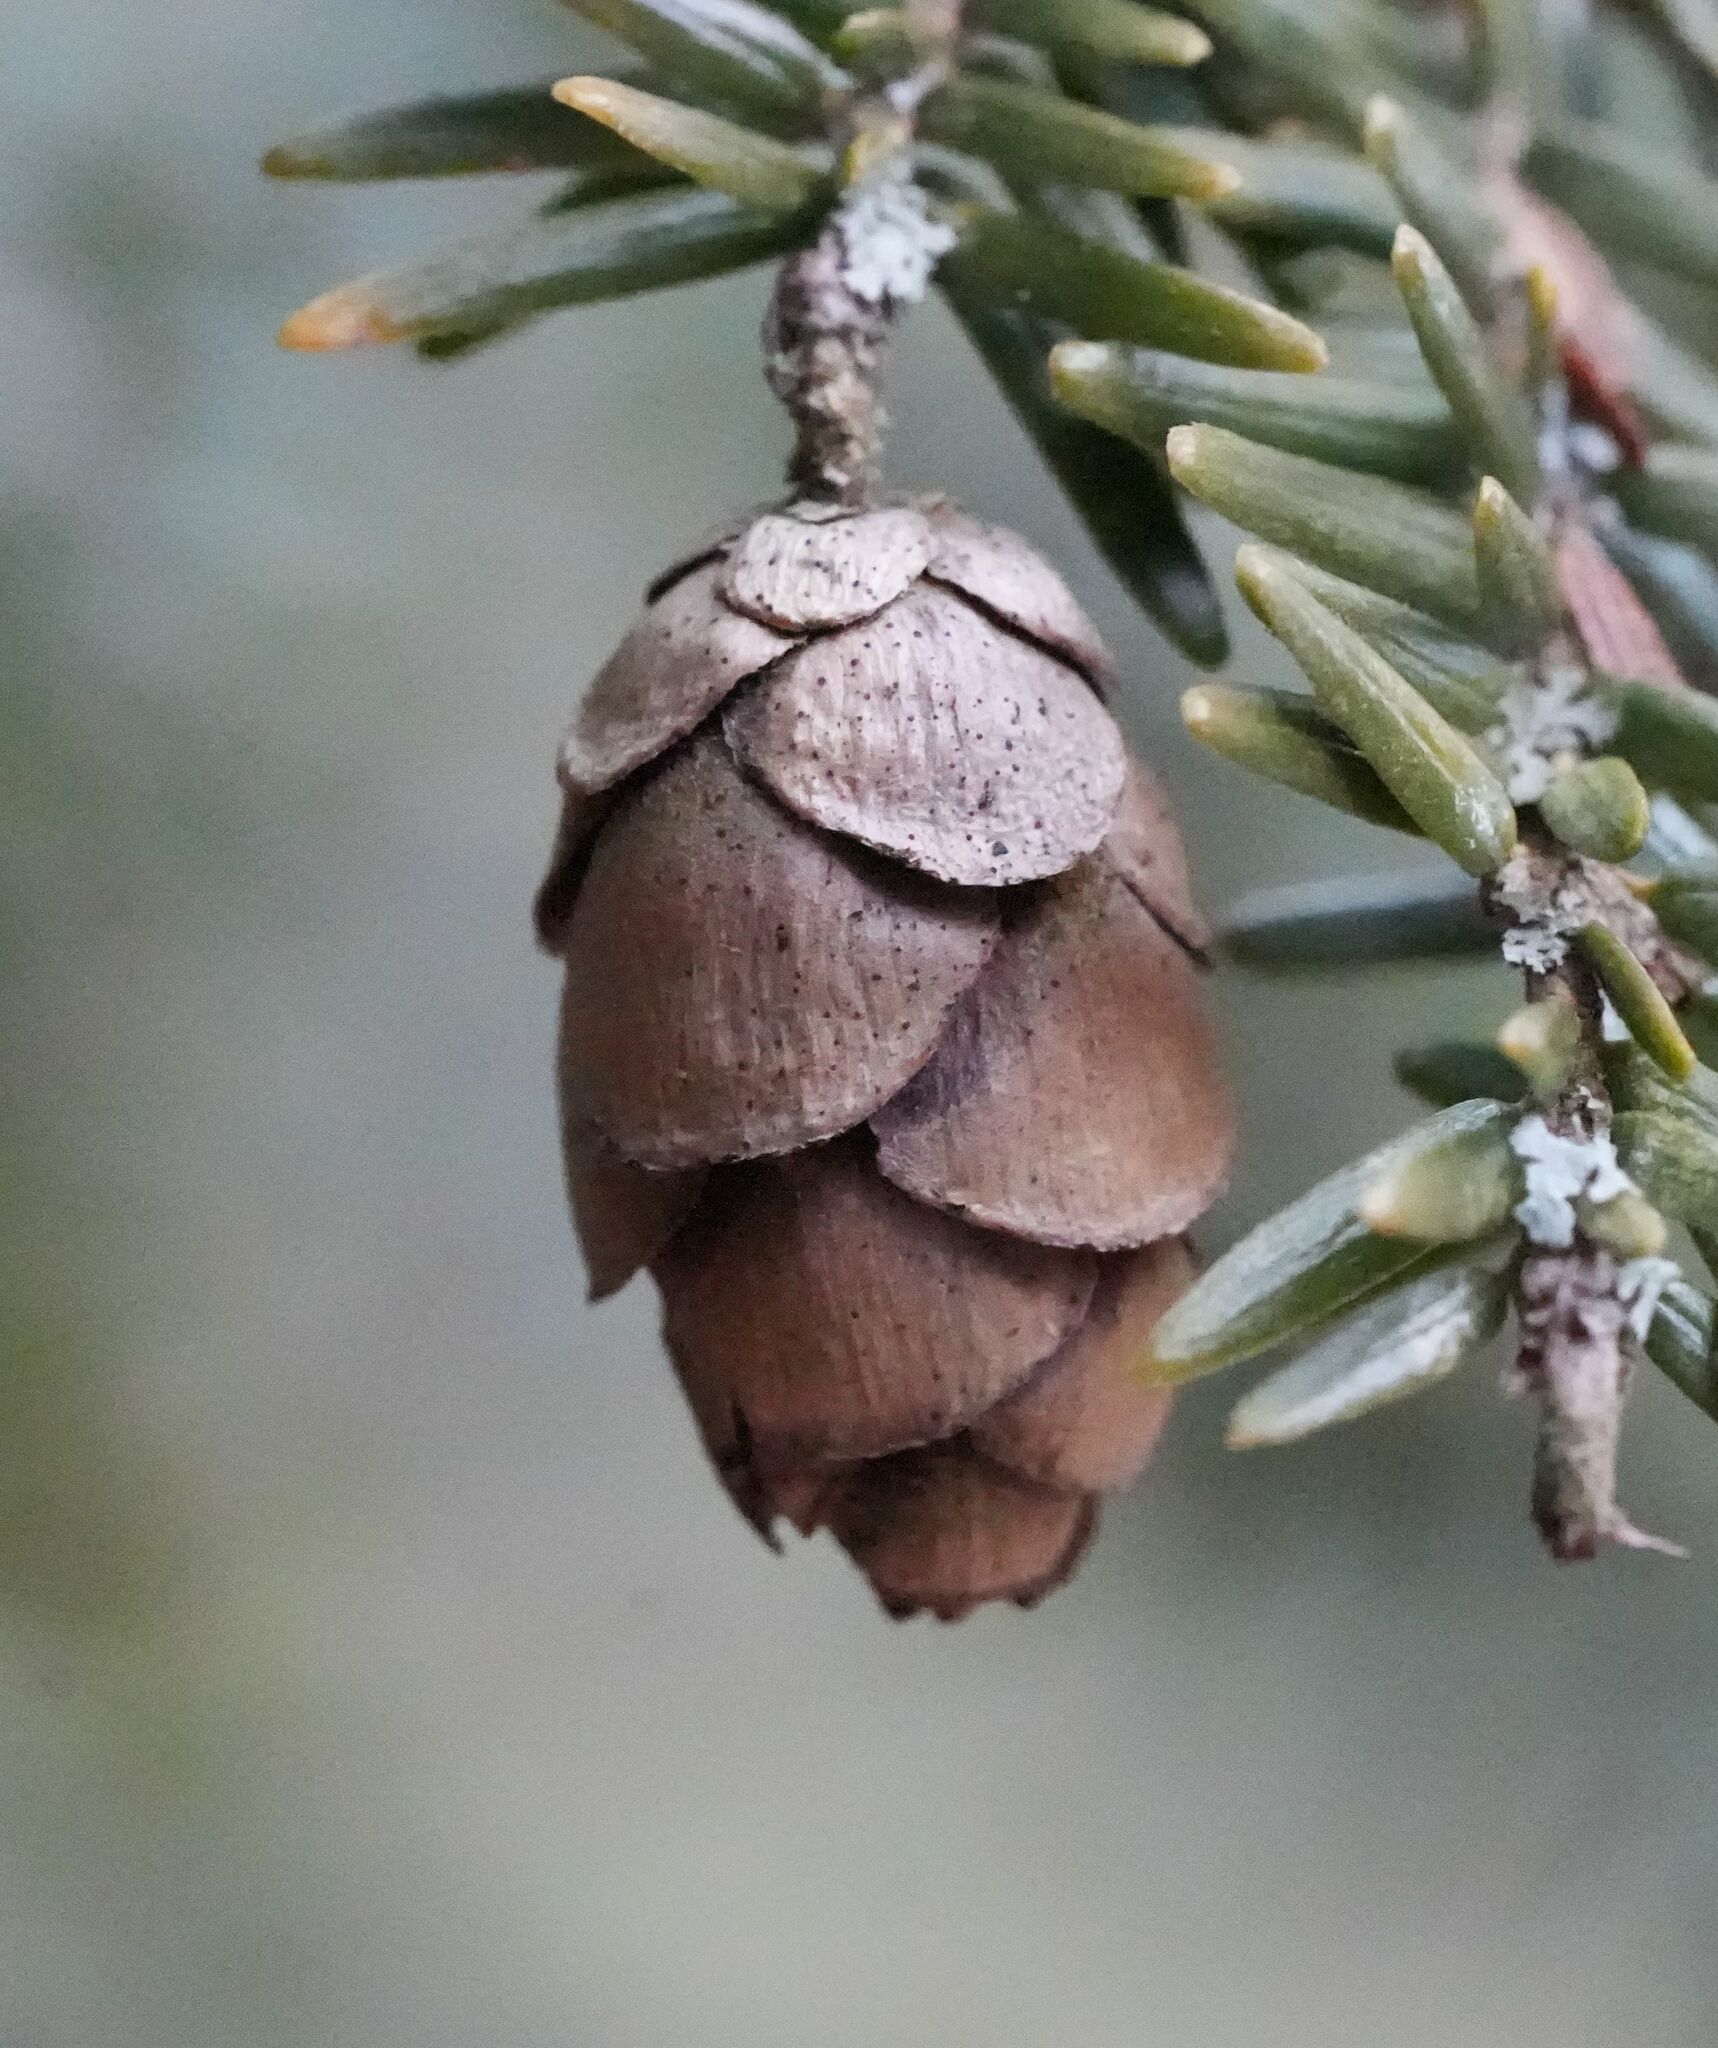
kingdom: Plantae
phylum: Tracheophyta
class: Pinopsida
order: Pinales
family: Pinaceae
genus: Tsuga
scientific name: Tsuga canadensis
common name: Eastern hemlock
